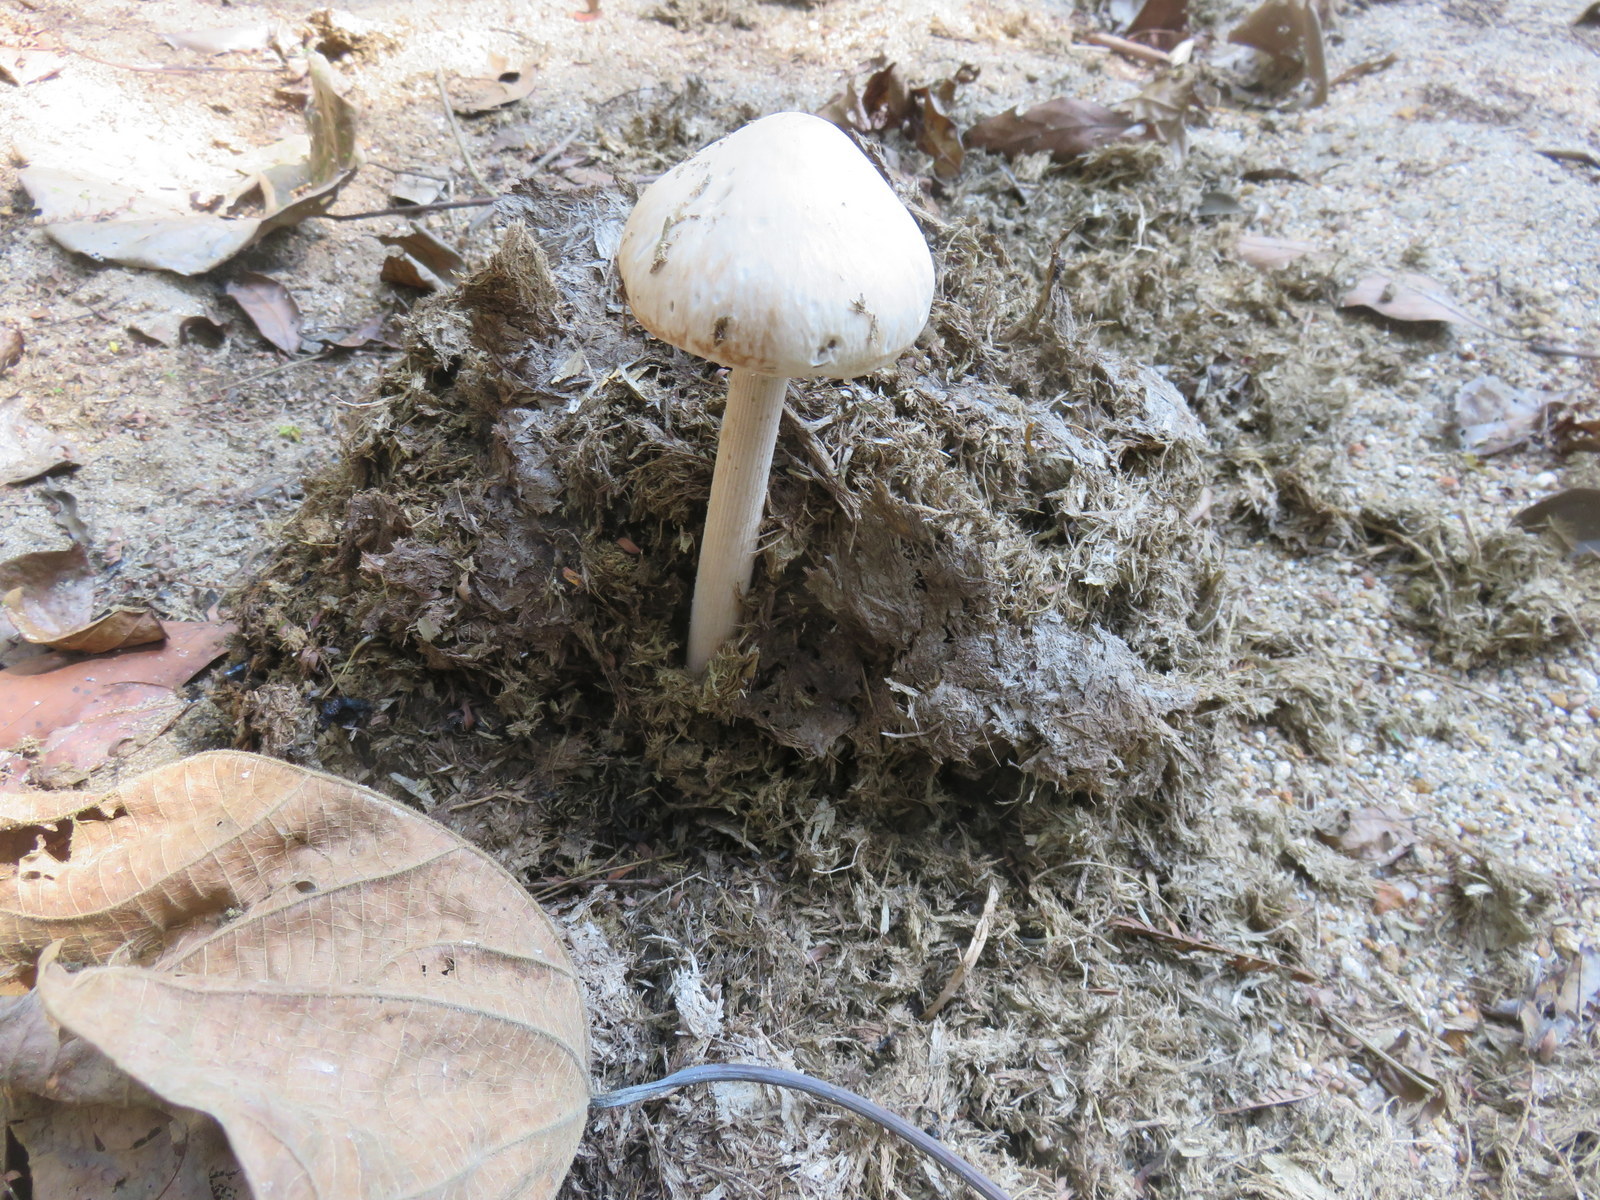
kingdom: Fungi
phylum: Basidiomycota
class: Agaricomycetes
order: Agaricales
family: Bolbitiaceae
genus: Panaeolus
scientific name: Panaeolus antillarum
